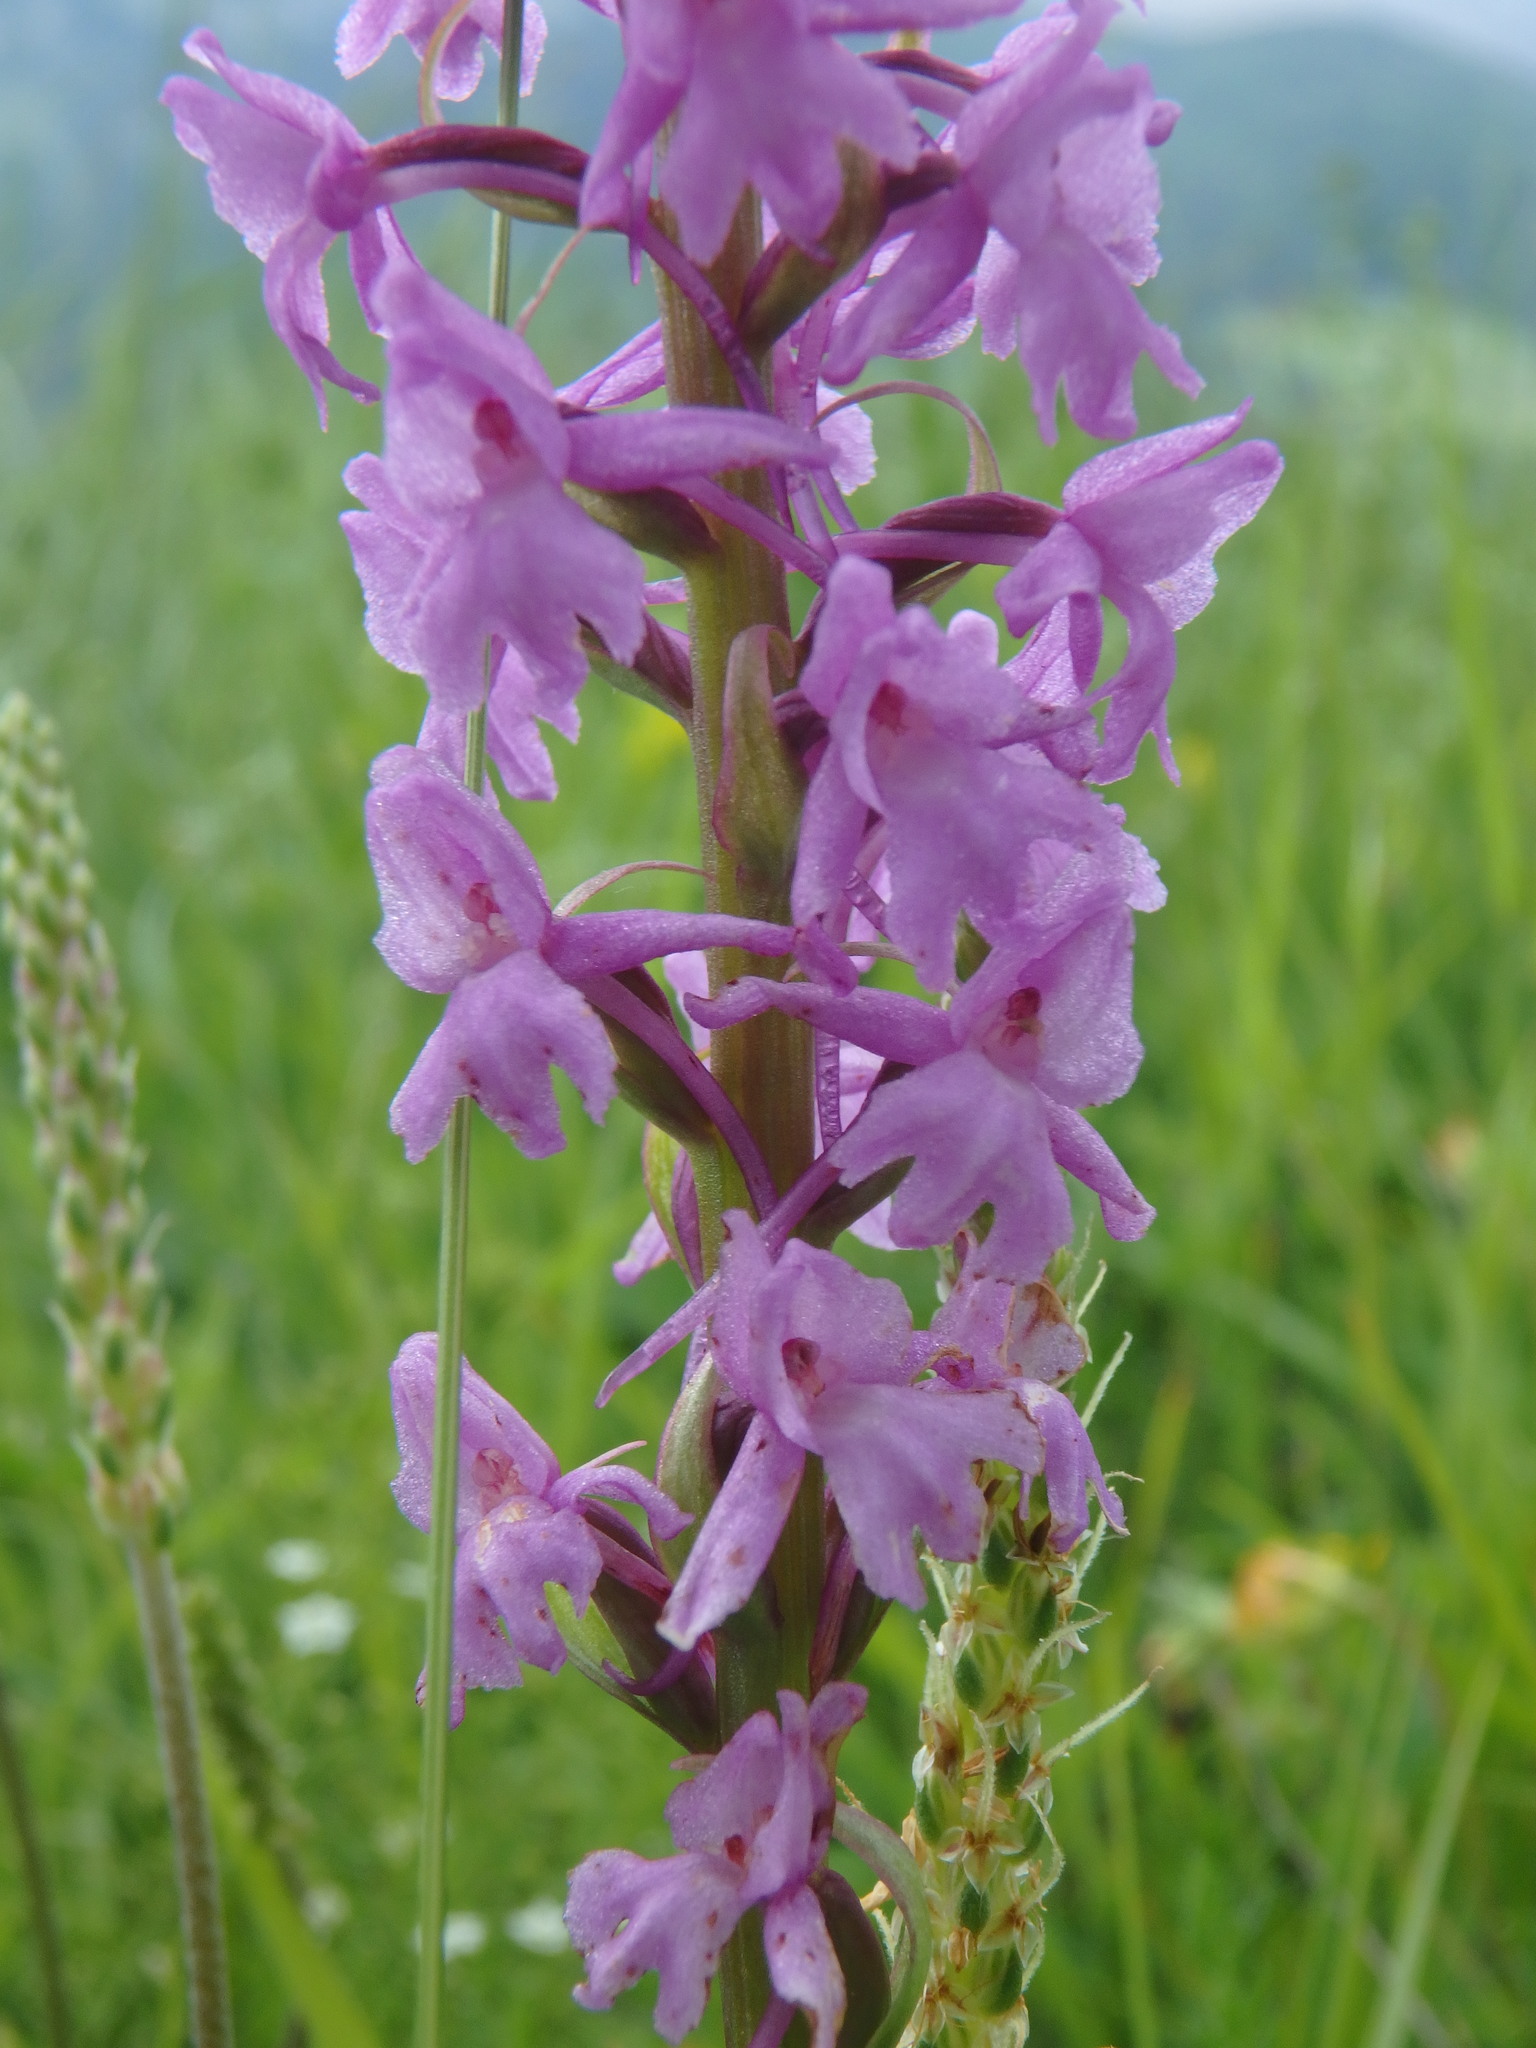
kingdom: Plantae
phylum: Tracheophyta
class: Liliopsida
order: Asparagales
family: Orchidaceae
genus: Gymnadenia
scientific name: Gymnadenia conopsea
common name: Fragrant orchid
